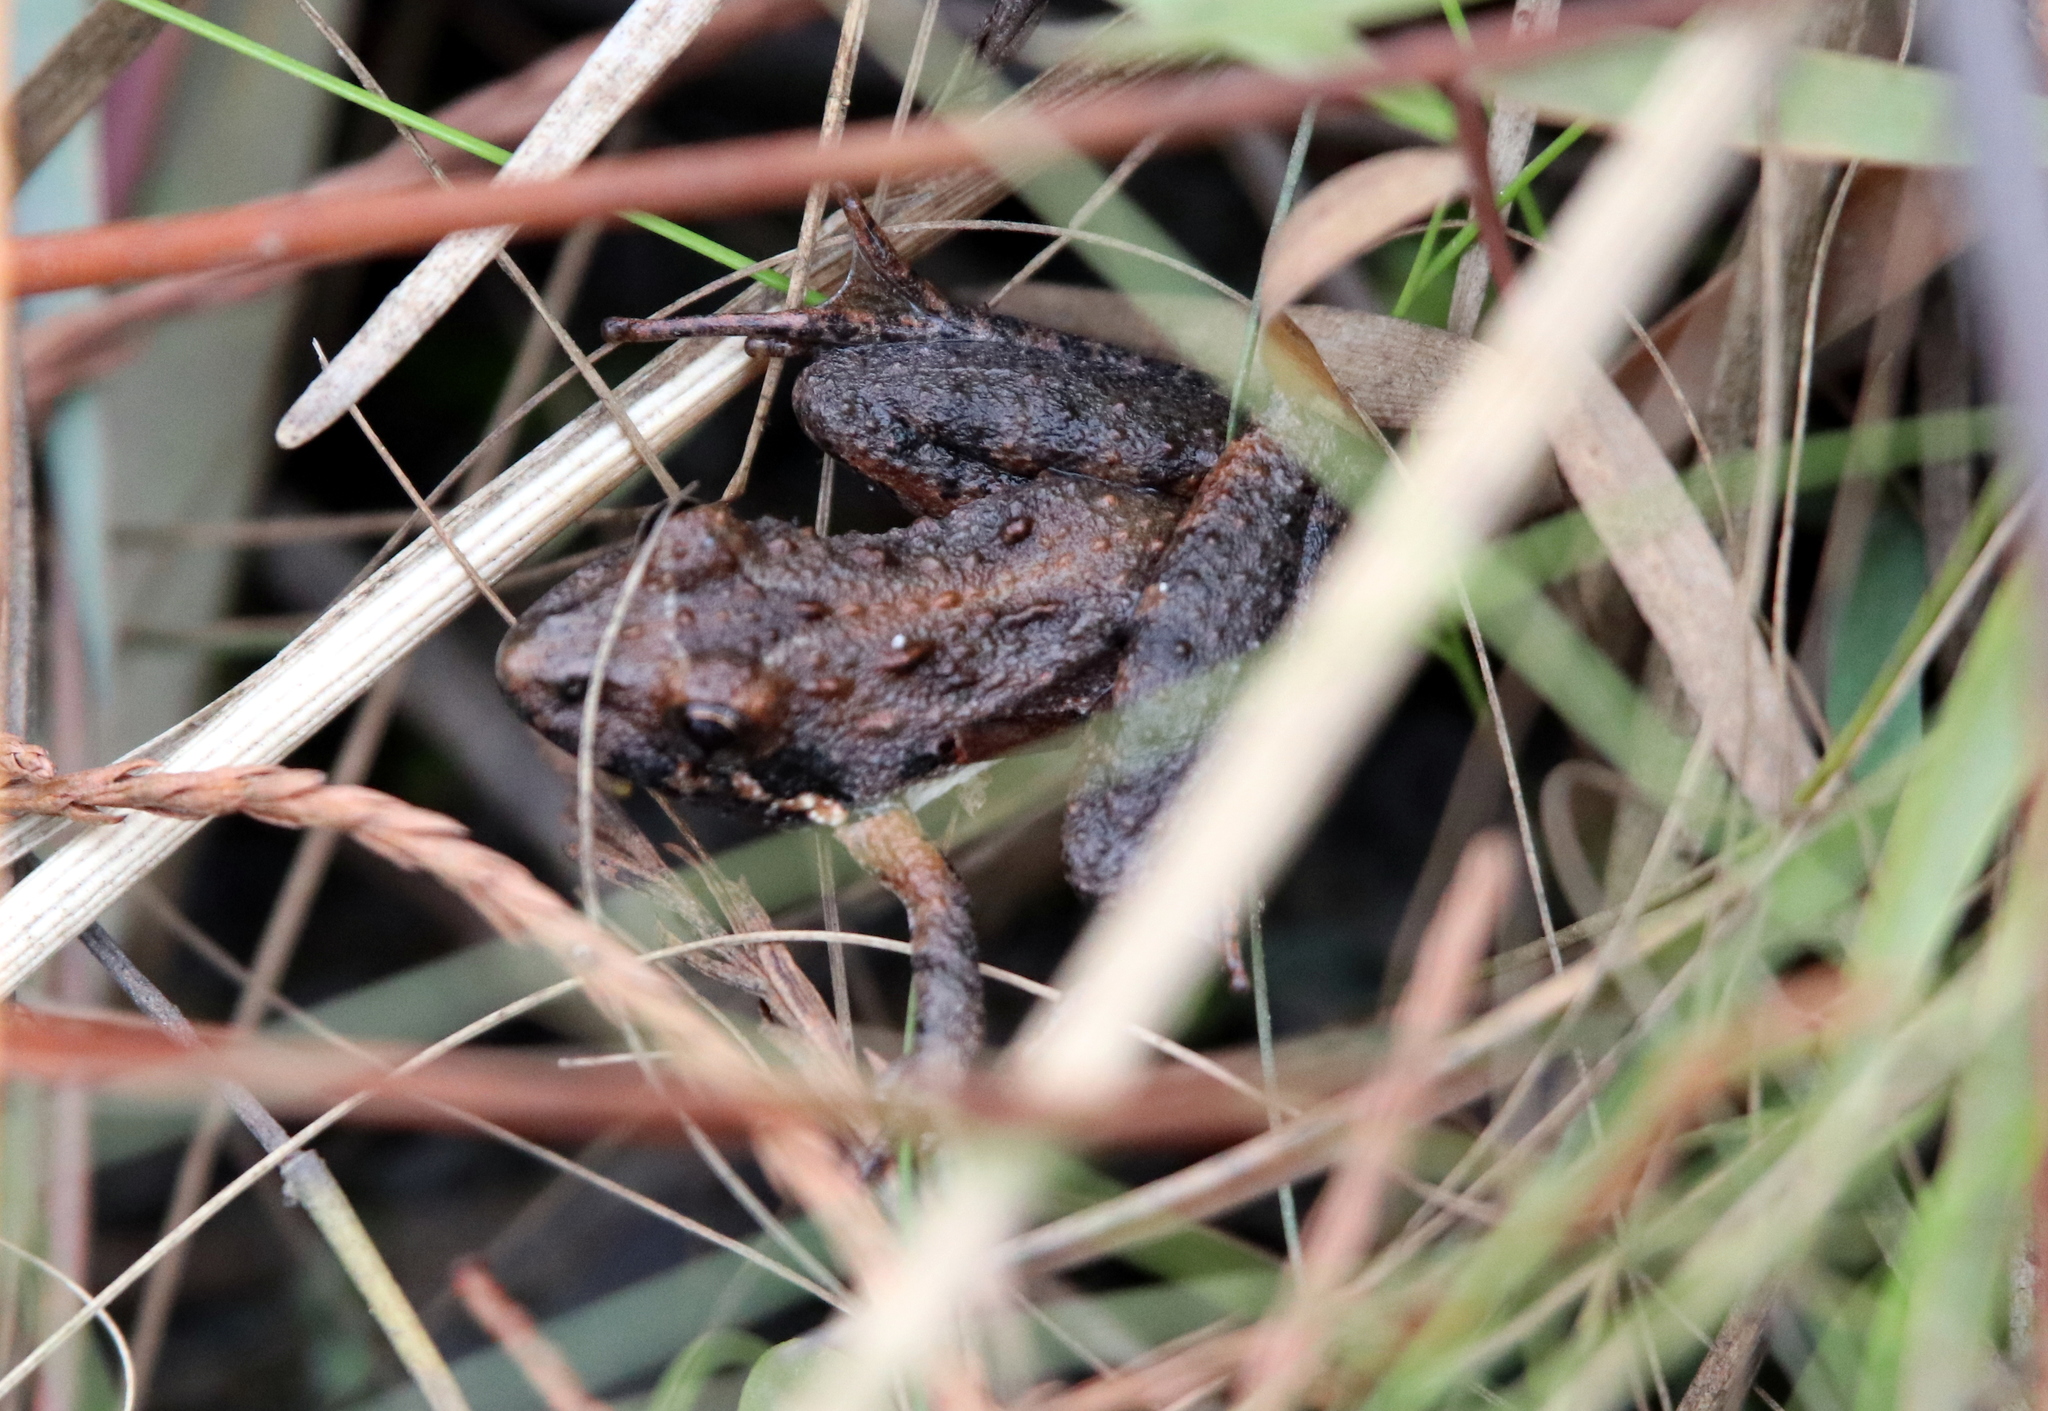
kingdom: Animalia
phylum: Chordata
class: Amphibia
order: Anura
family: Hylidae
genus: Acris
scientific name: Acris gryllus
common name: Southern cricket frog
